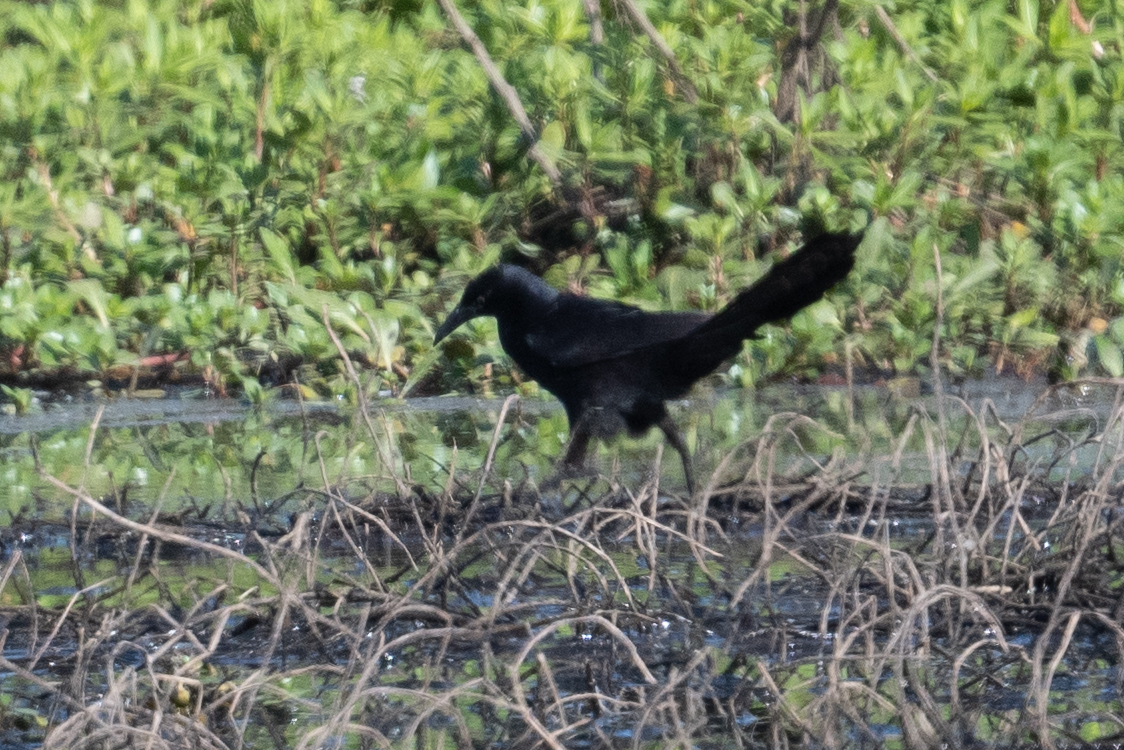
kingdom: Animalia
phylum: Chordata
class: Aves
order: Passeriformes
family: Icteridae
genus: Quiscalus
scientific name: Quiscalus mexicanus
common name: Great-tailed grackle
